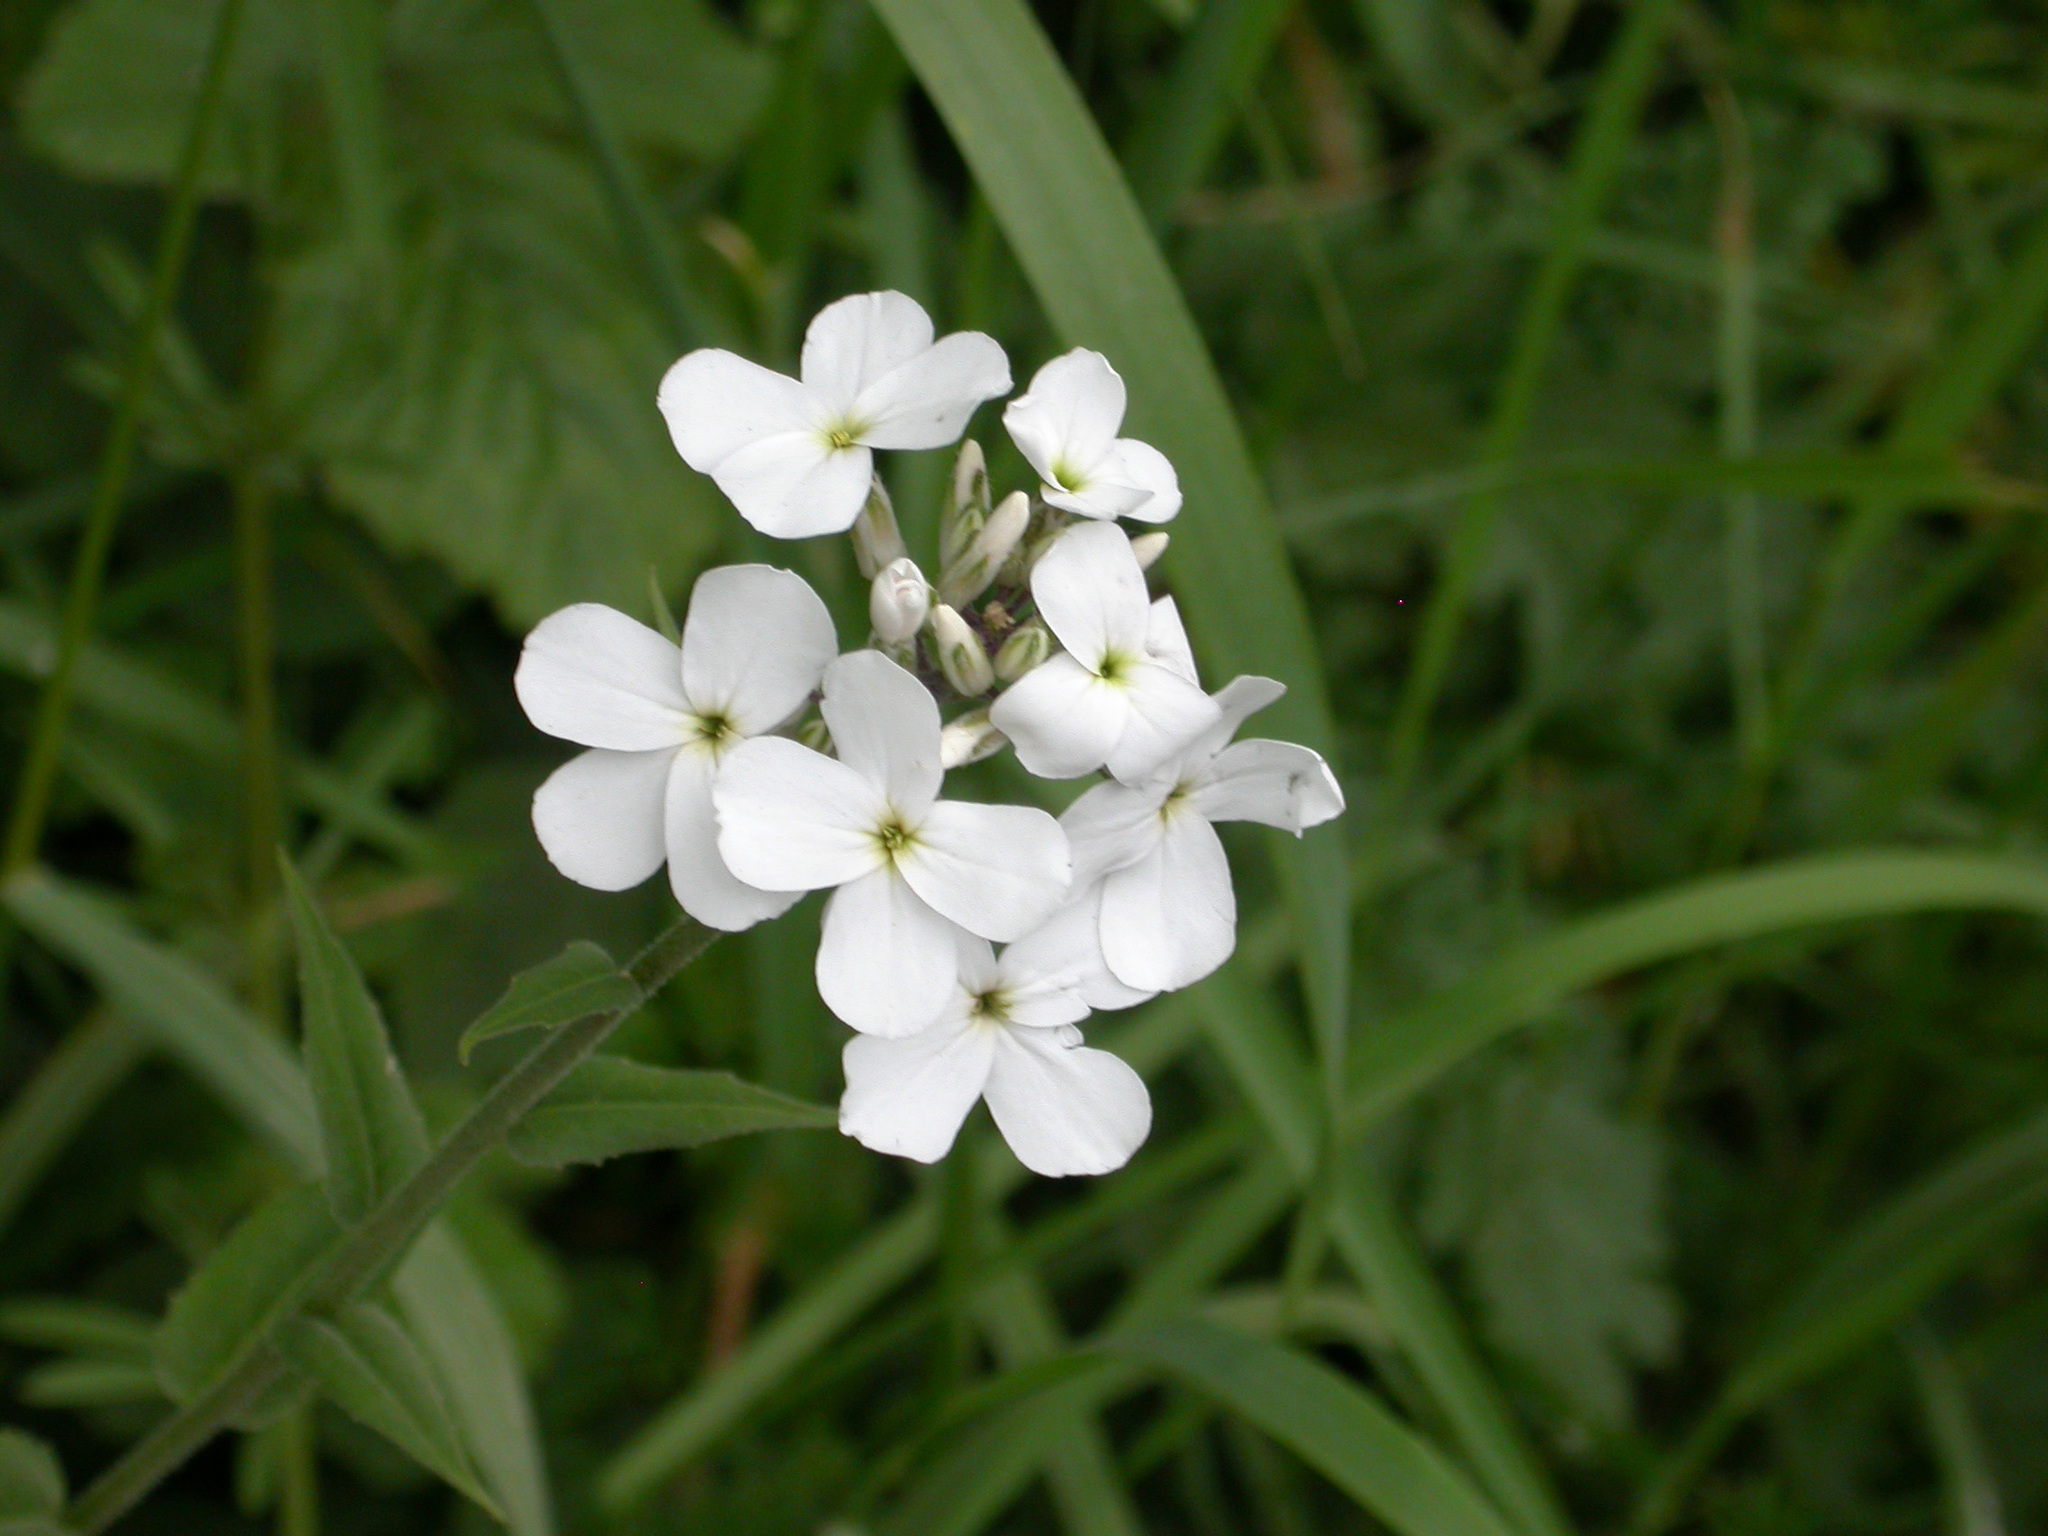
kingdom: Plantae
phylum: Tracheophyta
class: Magnoliopsida
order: Brassicales
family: Brassicaceae
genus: Hesperis
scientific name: Hesperis matronalis
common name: Dame's-violet
